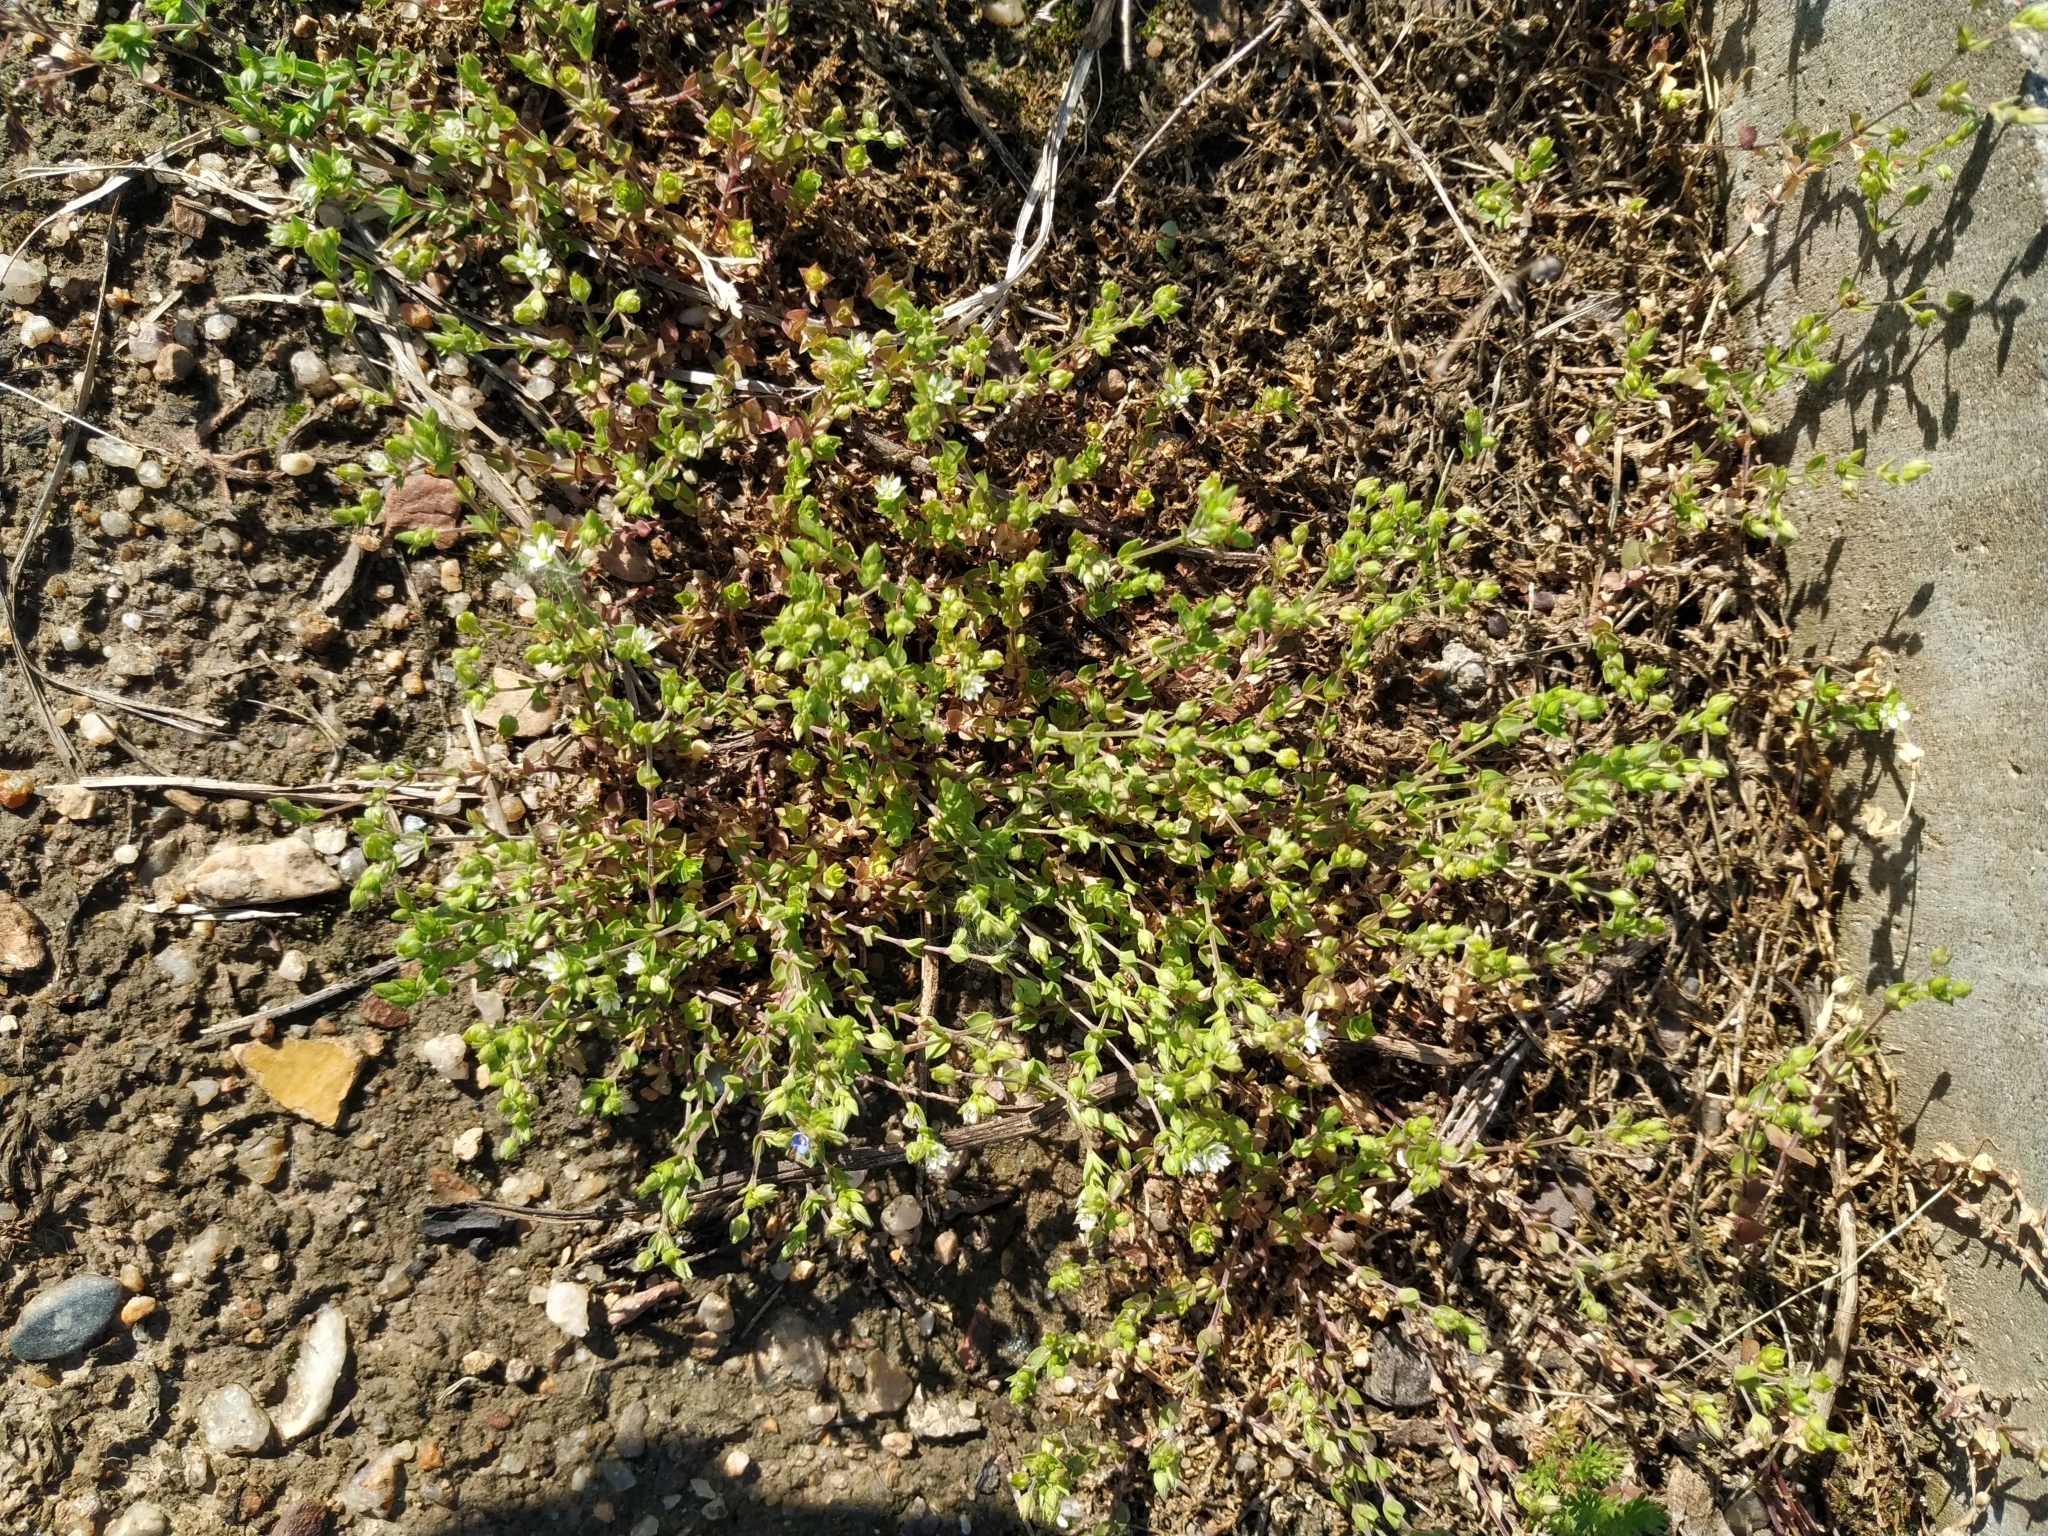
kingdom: Plantae
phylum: Tracheophyta
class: Magnoliopsida
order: Caryophyllales
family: Caryophyllaceae
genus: Arenaria
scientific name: Arenaria serpyllifolia
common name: Thyme-leaved sandwort
